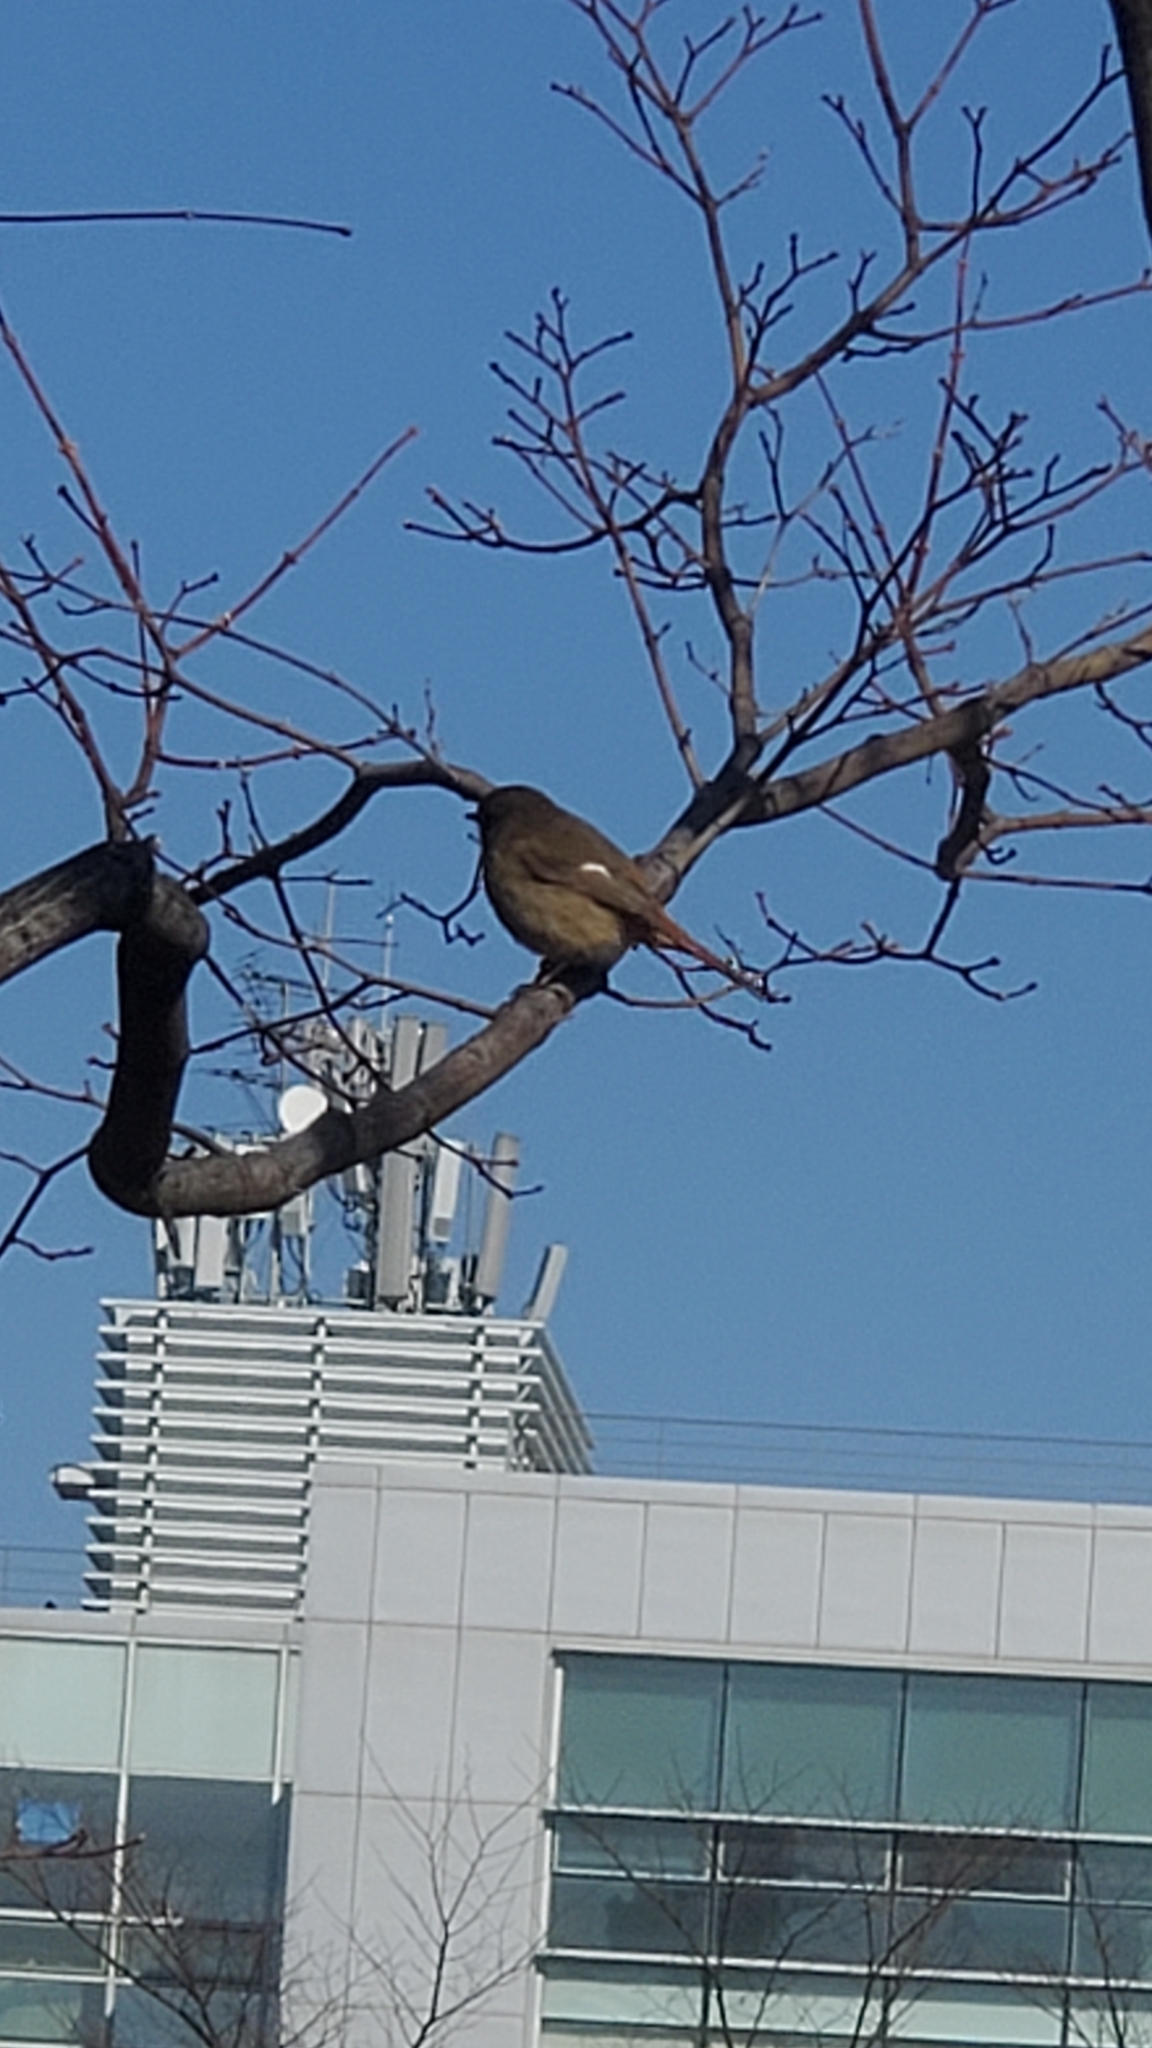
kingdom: Animalia
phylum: Chordata
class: Aves
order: Passeriformes
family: Muscicapidae
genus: Phoenicurus
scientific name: Phoenicurus auroreus
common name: Daurian redstart
